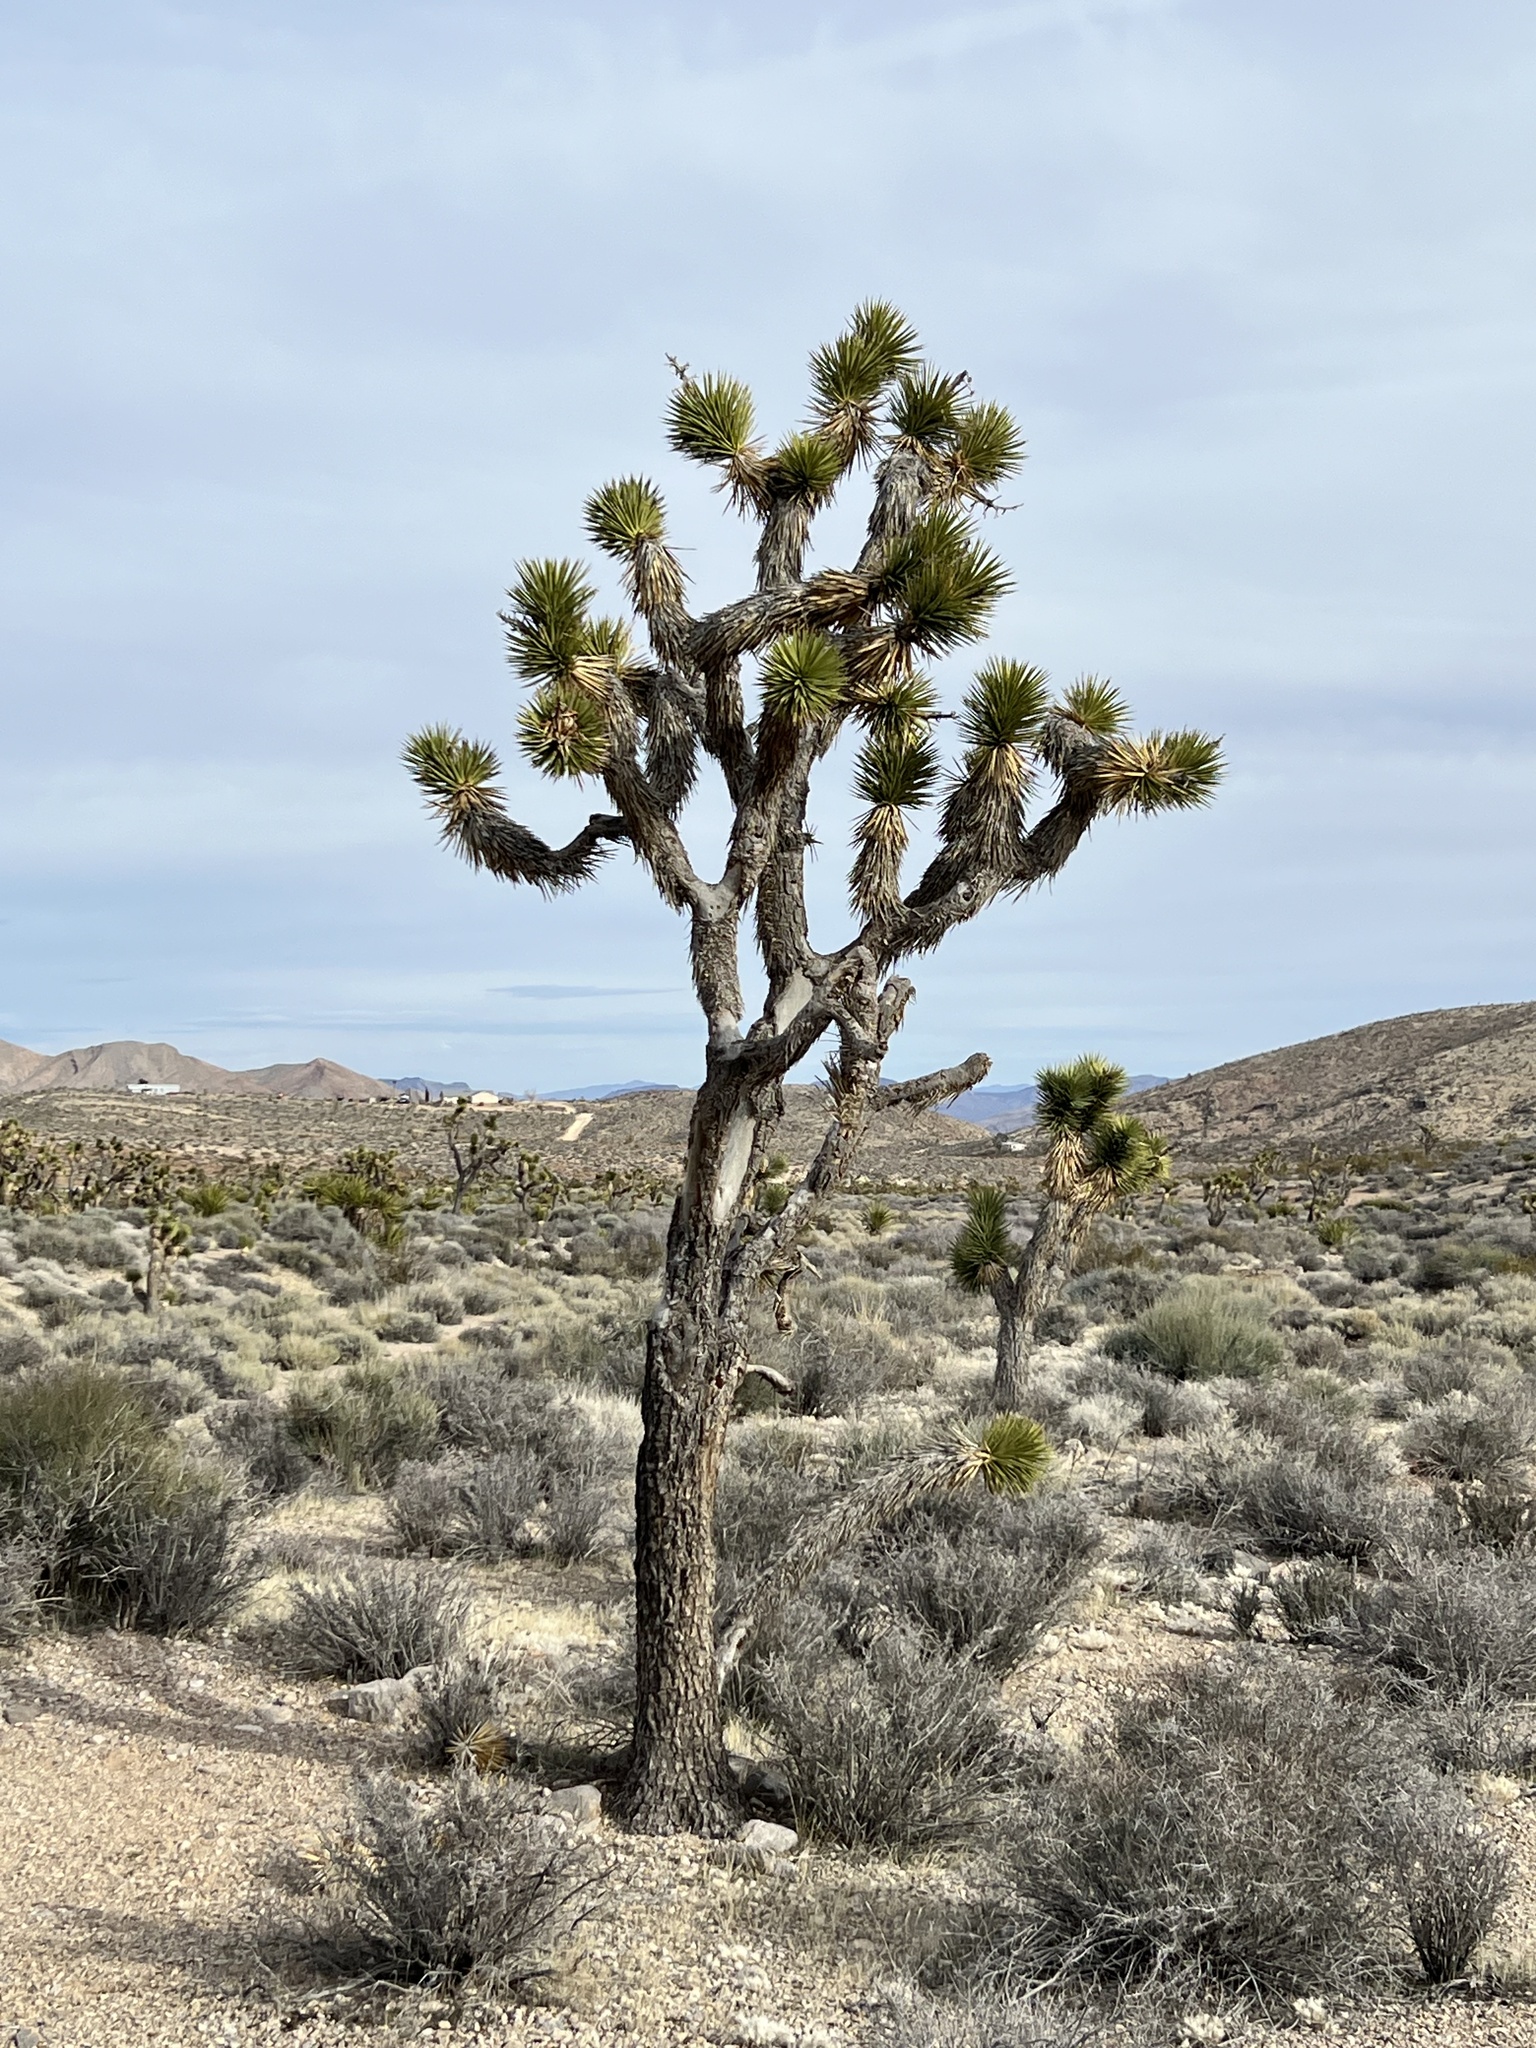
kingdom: Plantae
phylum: Tracheophyta
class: Liliopsida
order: Asparagales
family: Asparagaceae
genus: Yucca
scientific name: Yucca brevifolia
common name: Joshua tree
